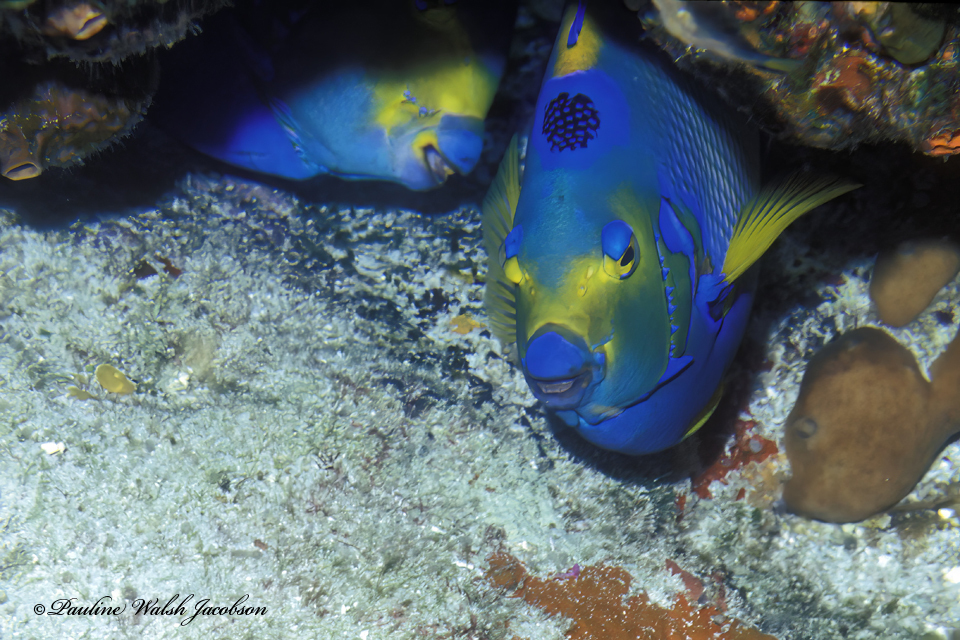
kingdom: Animalia
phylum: Chordata
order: Perciformes
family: Pomacanthidae
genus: Holacanthus
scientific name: Holacanthus ciliaris
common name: Queen angelfish
